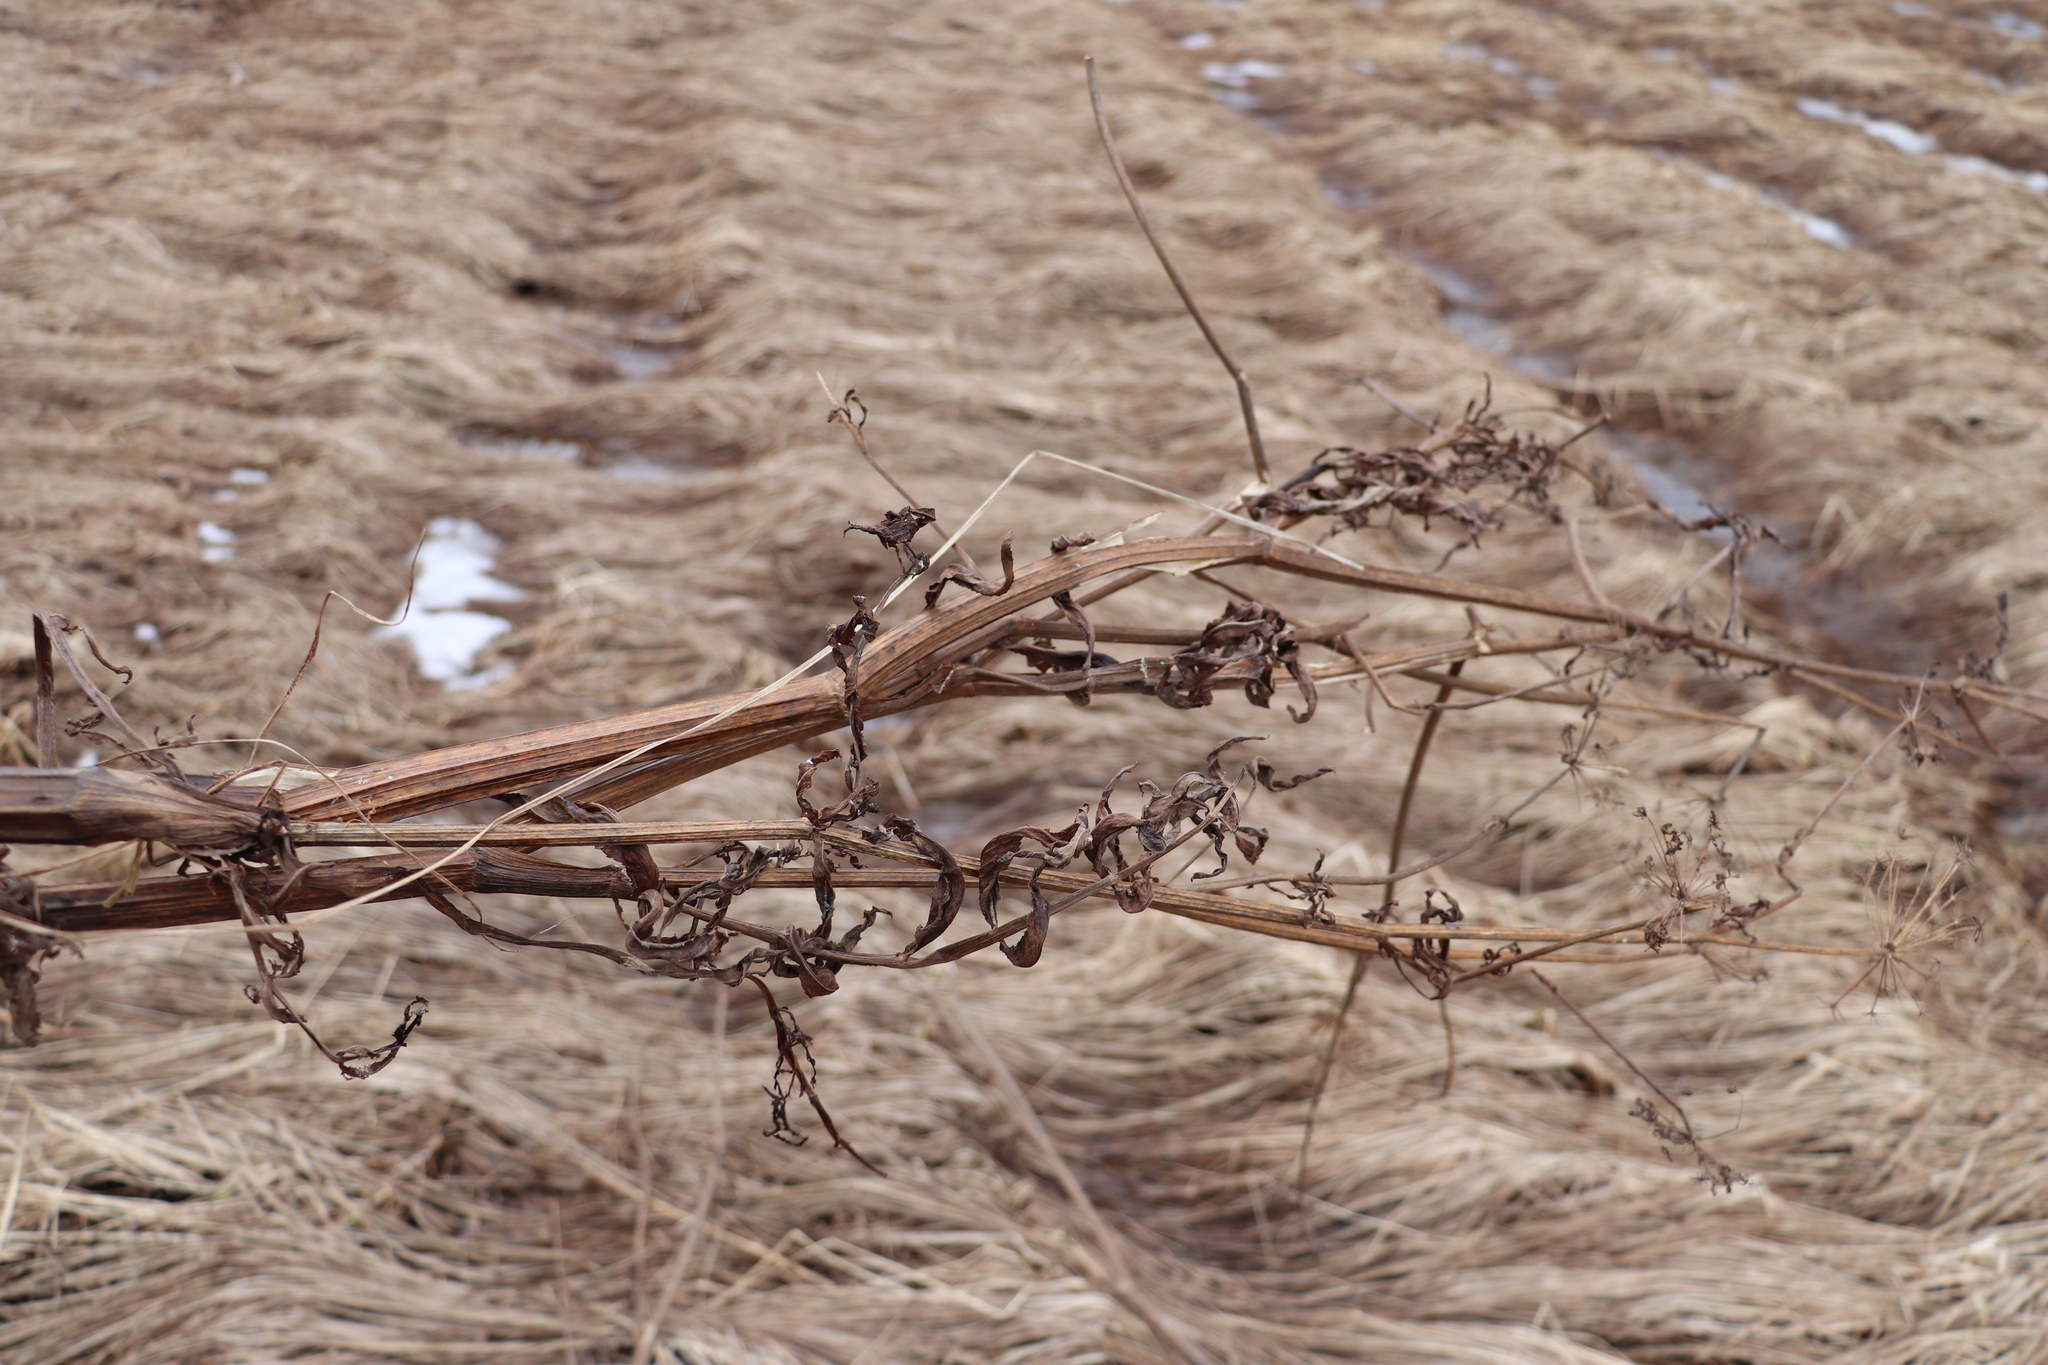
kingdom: Plantae
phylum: Tracheophyta
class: Magnoliopsida
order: Apiales
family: Apiaceae
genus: Cicuta
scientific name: Cicuta virosa
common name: Cowbane
